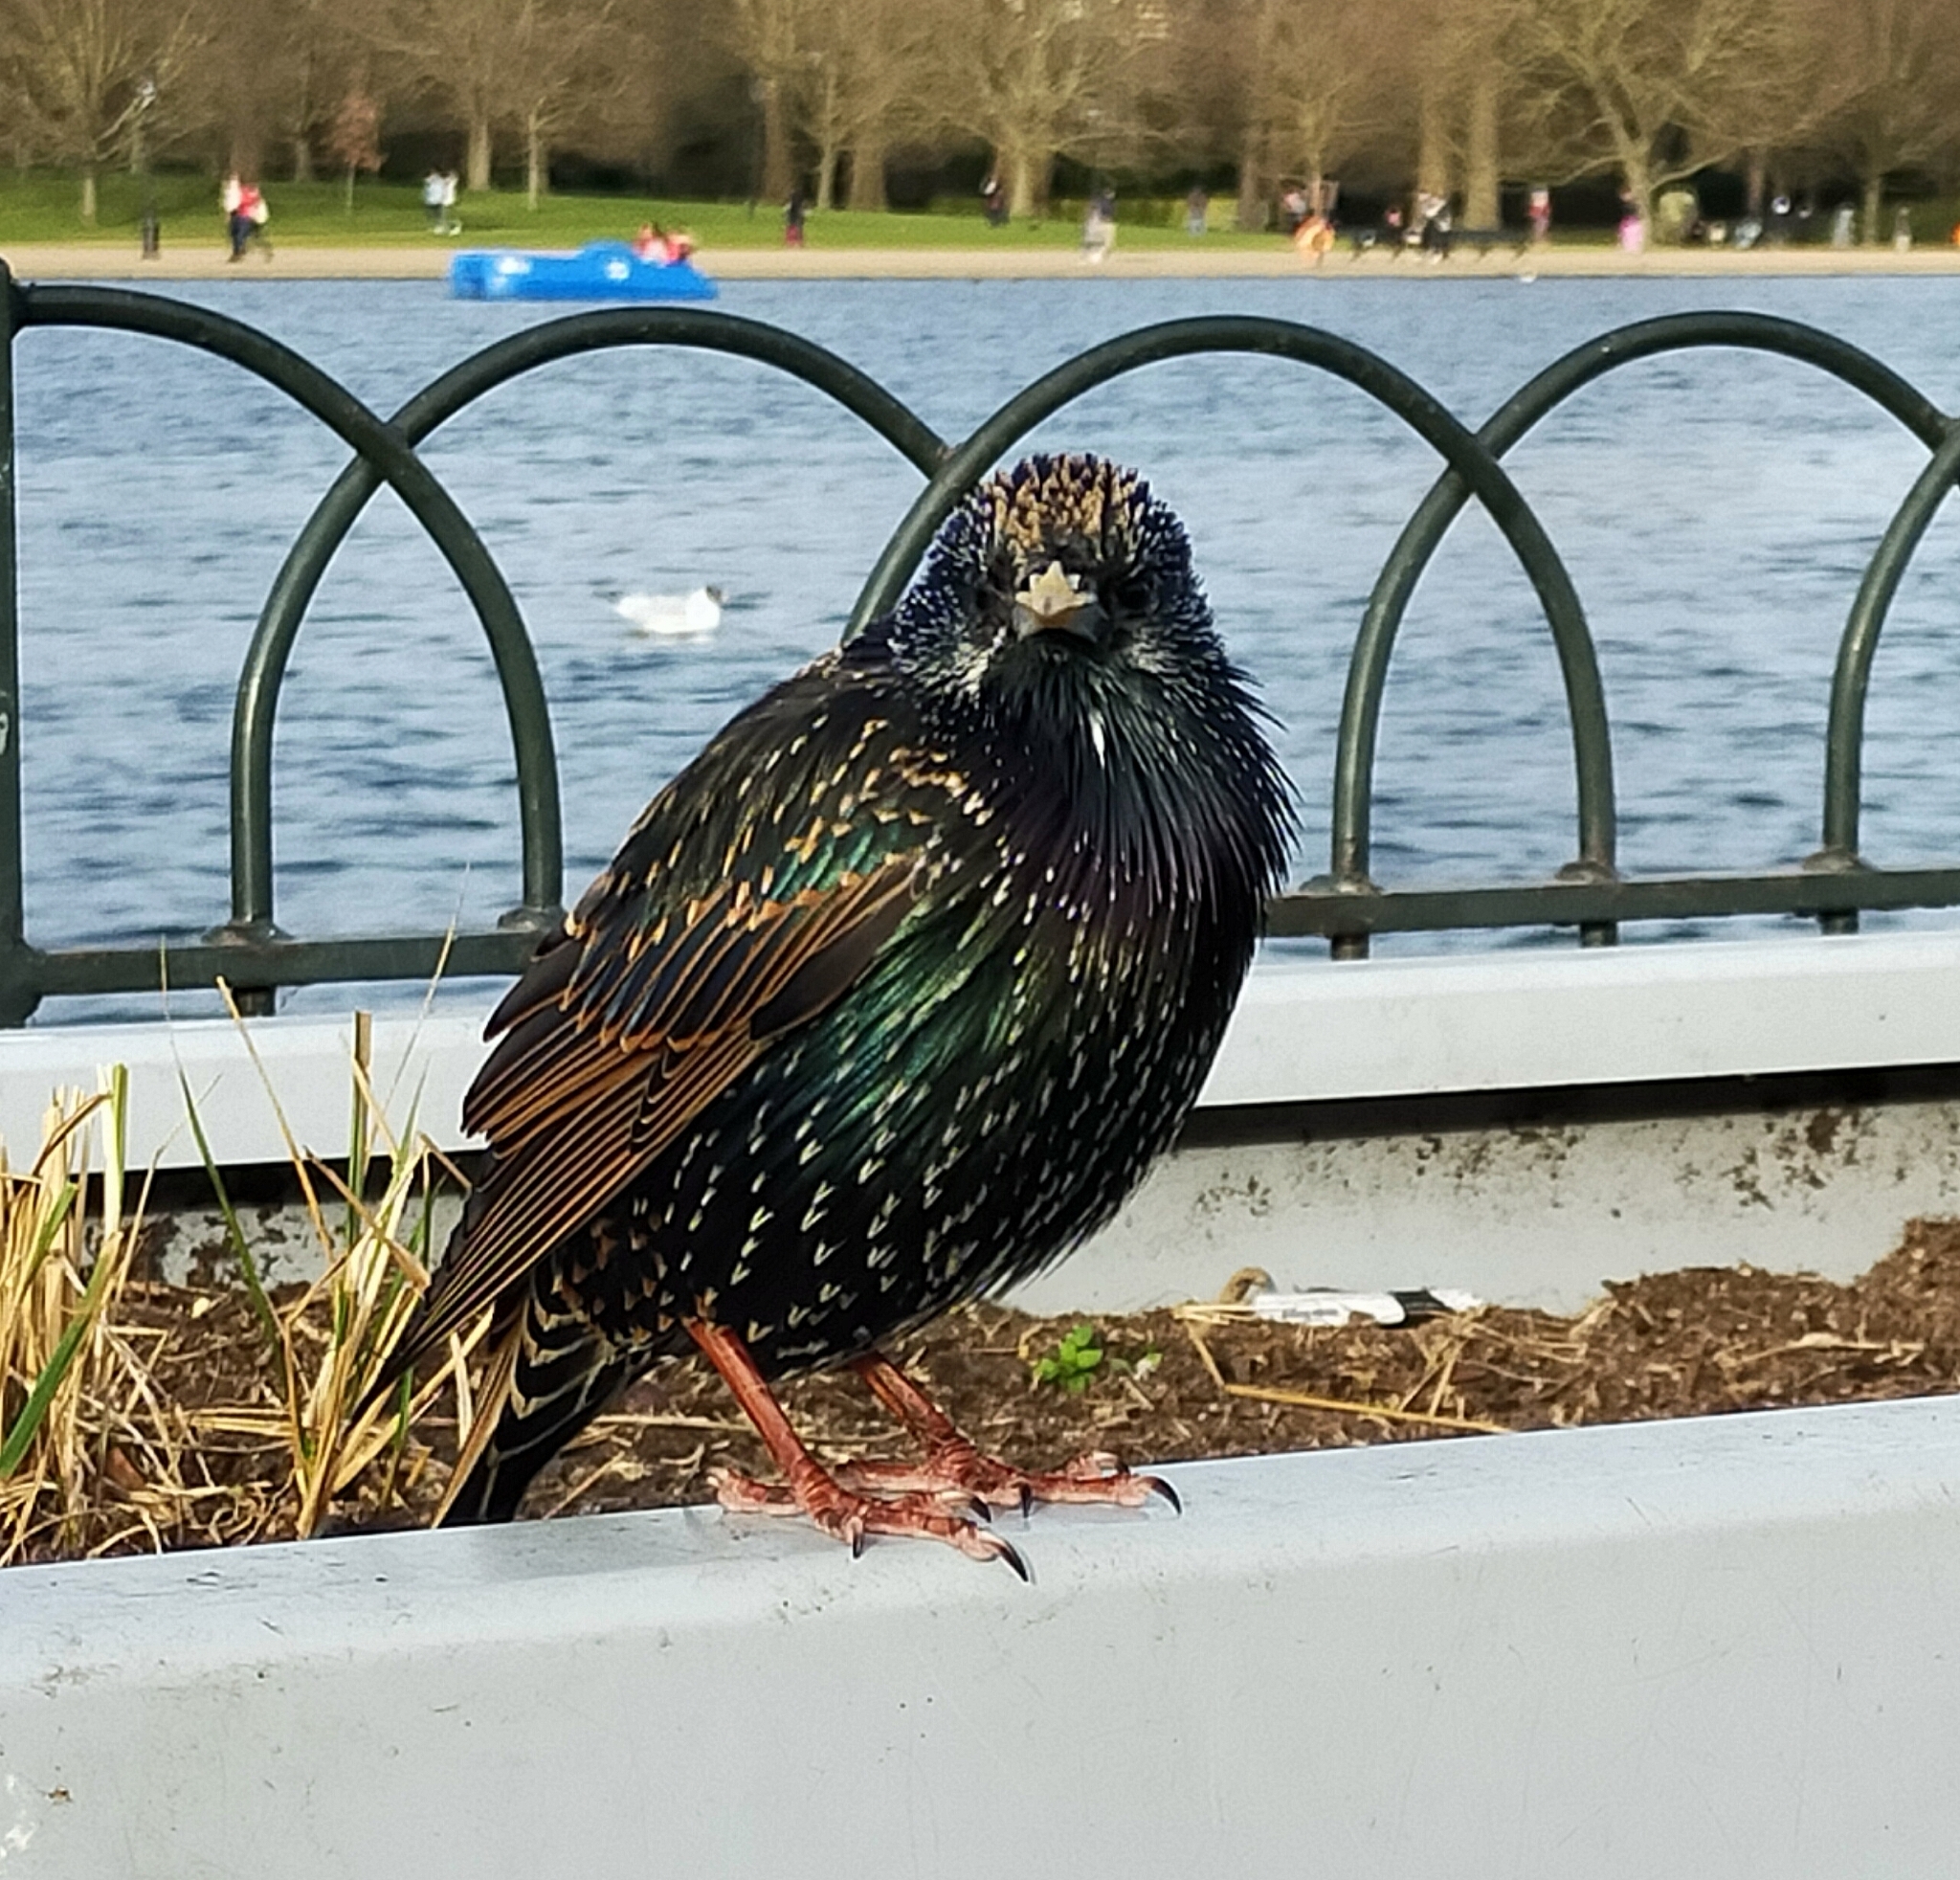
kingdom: Animalia
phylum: Chordata
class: Aves
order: Passeriformes
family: Sturnidae
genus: Sturnus
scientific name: Sturnus vulgaris
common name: Common starling
